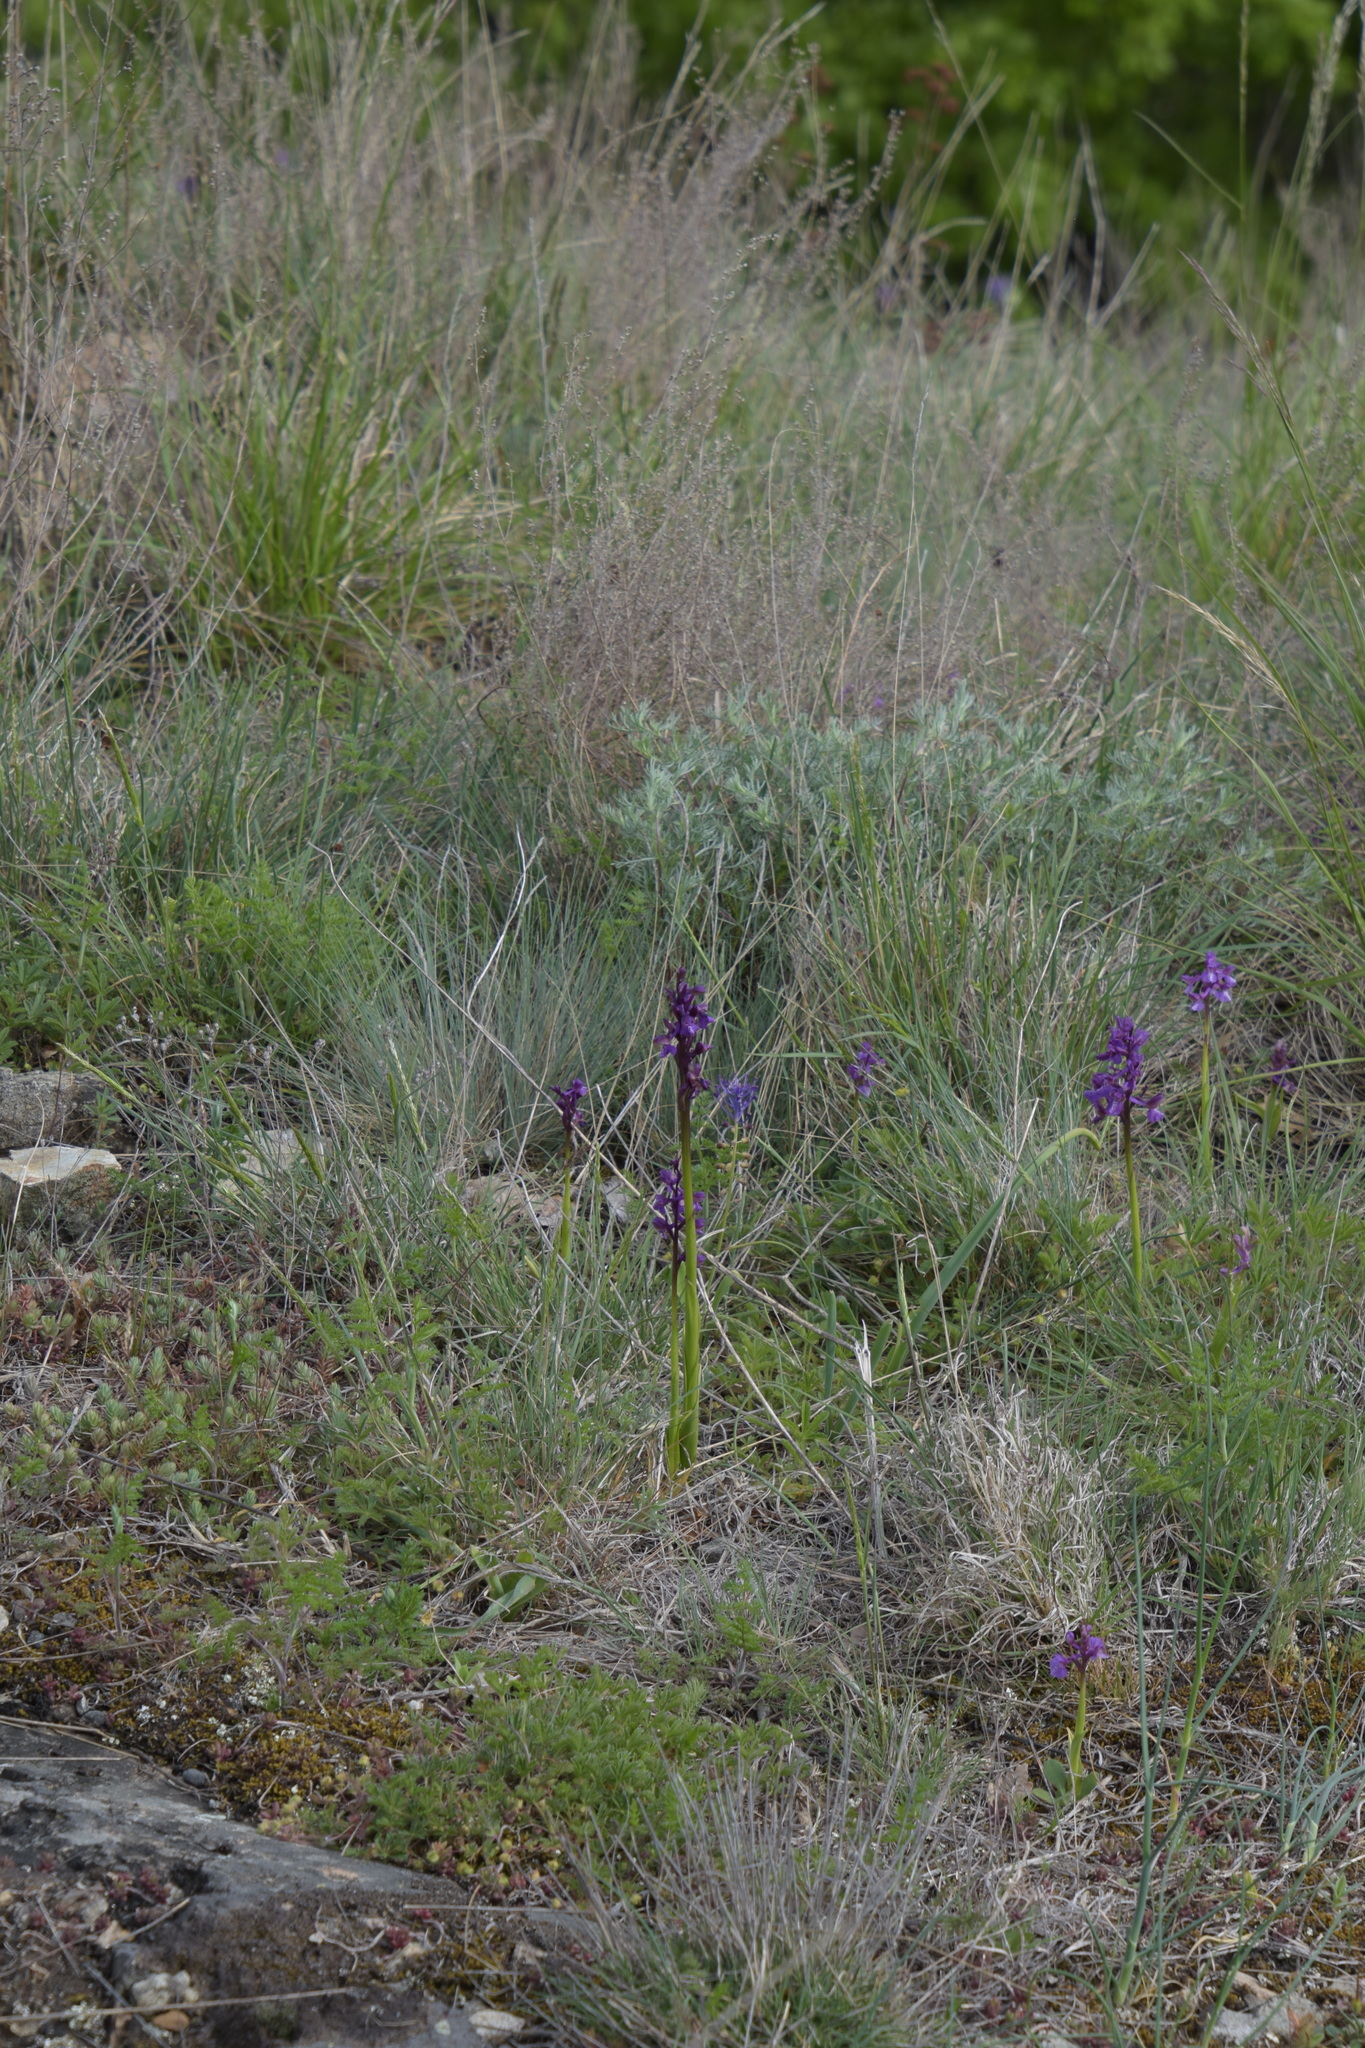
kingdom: Plantae
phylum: Tracheophyta
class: Liliopsida
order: Asparagales
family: Orchidaceae
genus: Anacamptis
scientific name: Anacamptis morio
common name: Green-winged orchid
